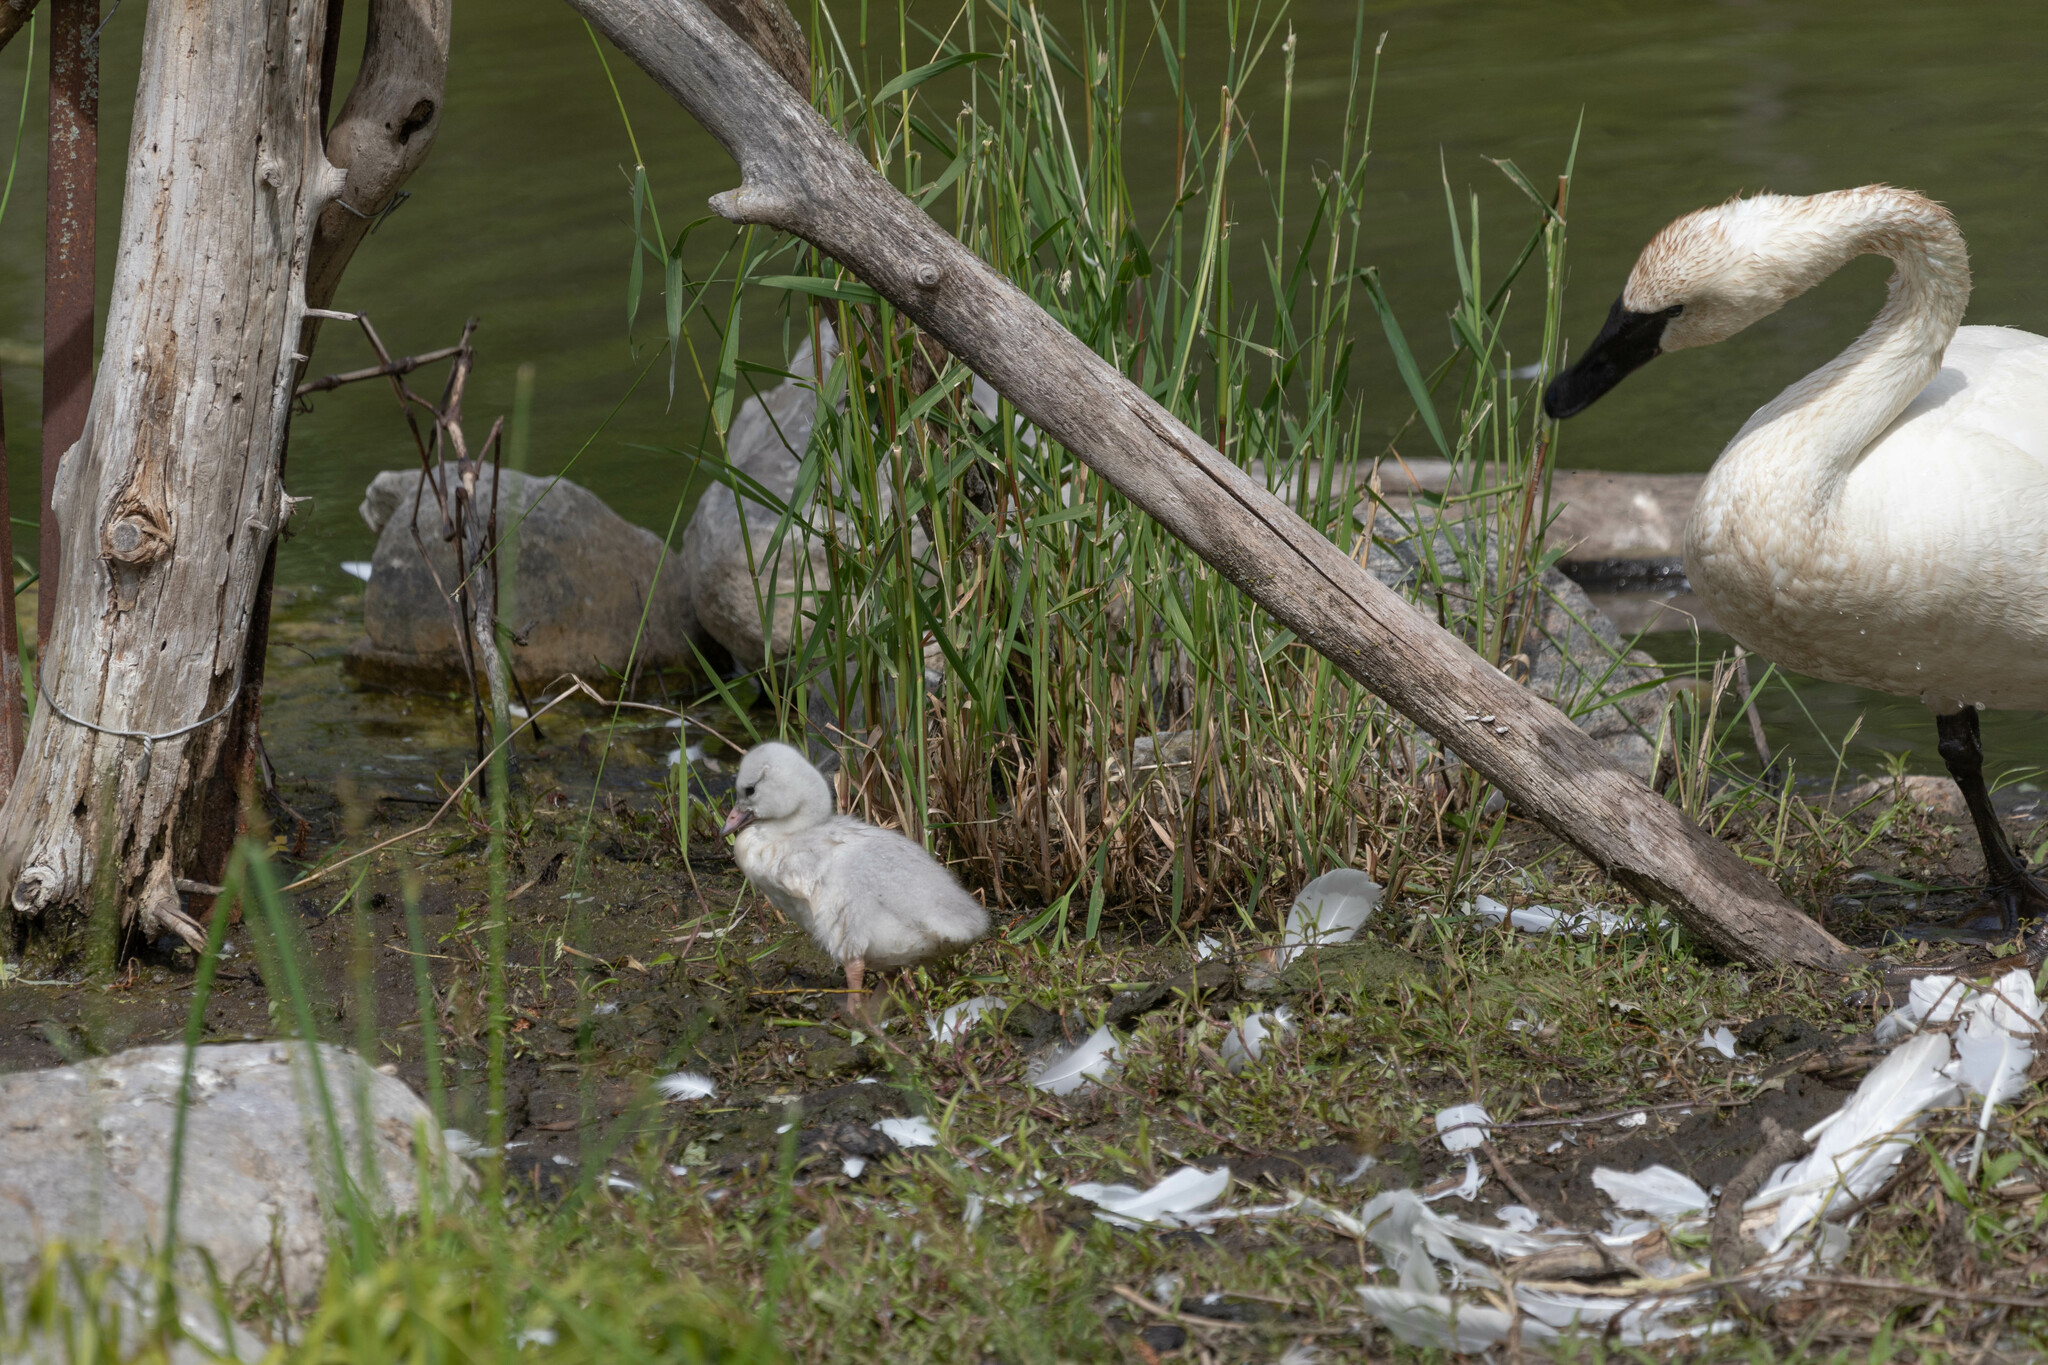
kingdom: Animalia
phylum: Chordata
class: Aves
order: Anseriformes
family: Anatidae
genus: Cygnus
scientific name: Cygnus buccinator
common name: Trumpeter swan
